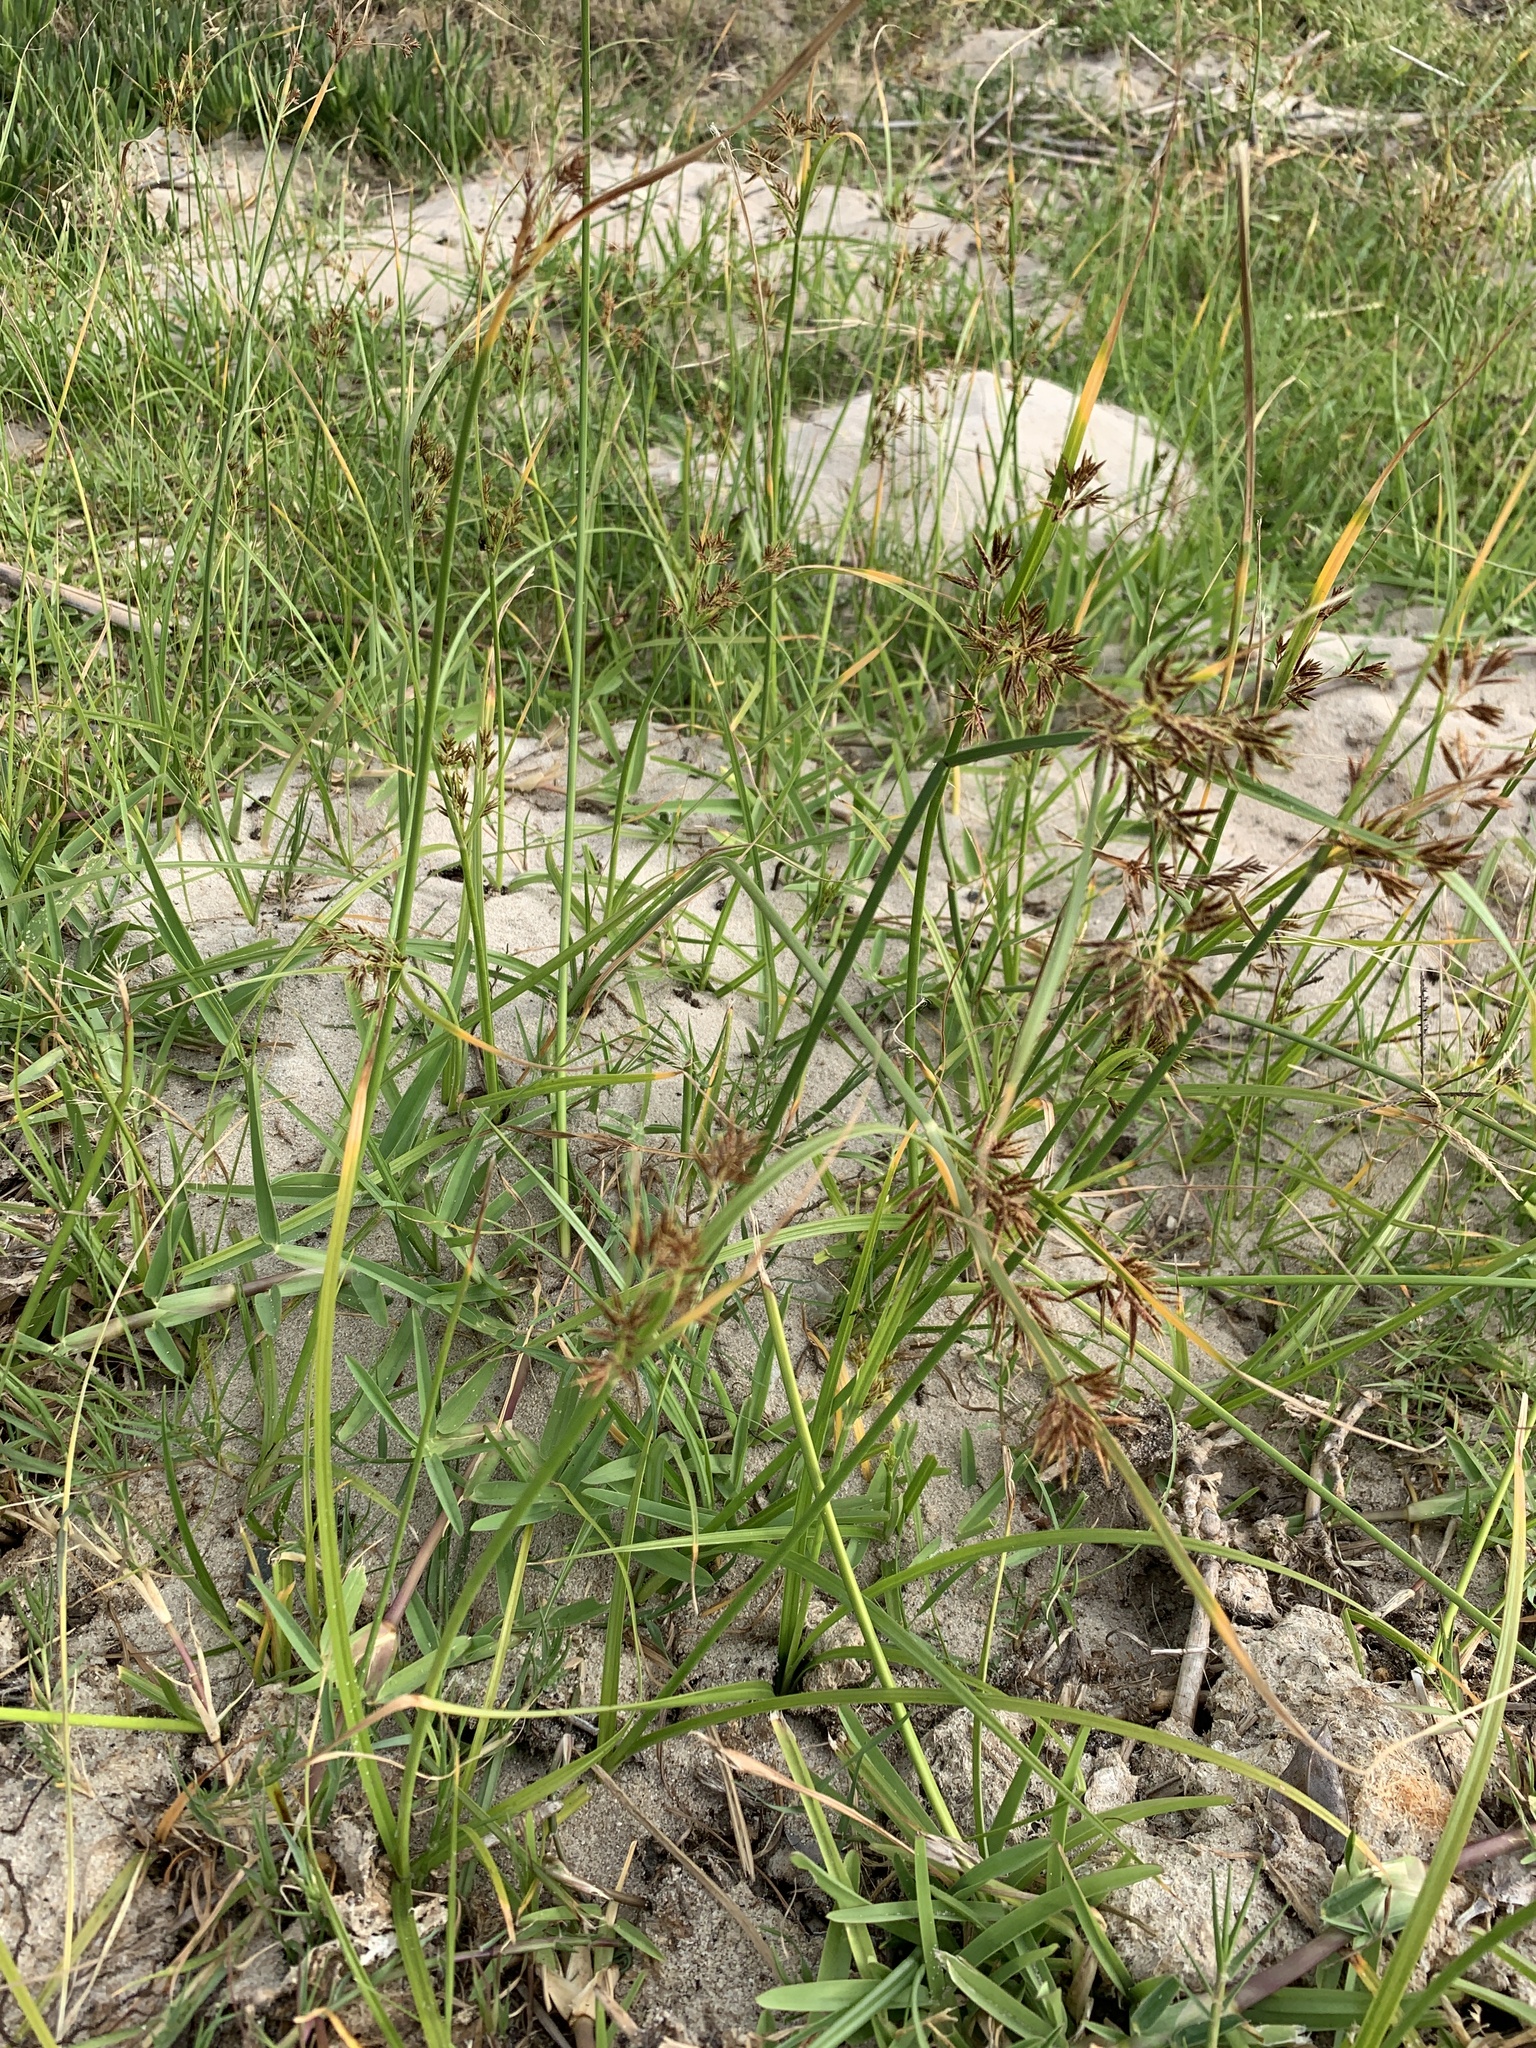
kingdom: Plantae
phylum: Tracheophyta
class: Liliopsida
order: Poales
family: Cyperaceae
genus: Cyperus
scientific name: Cyperus longus
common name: Galingale
